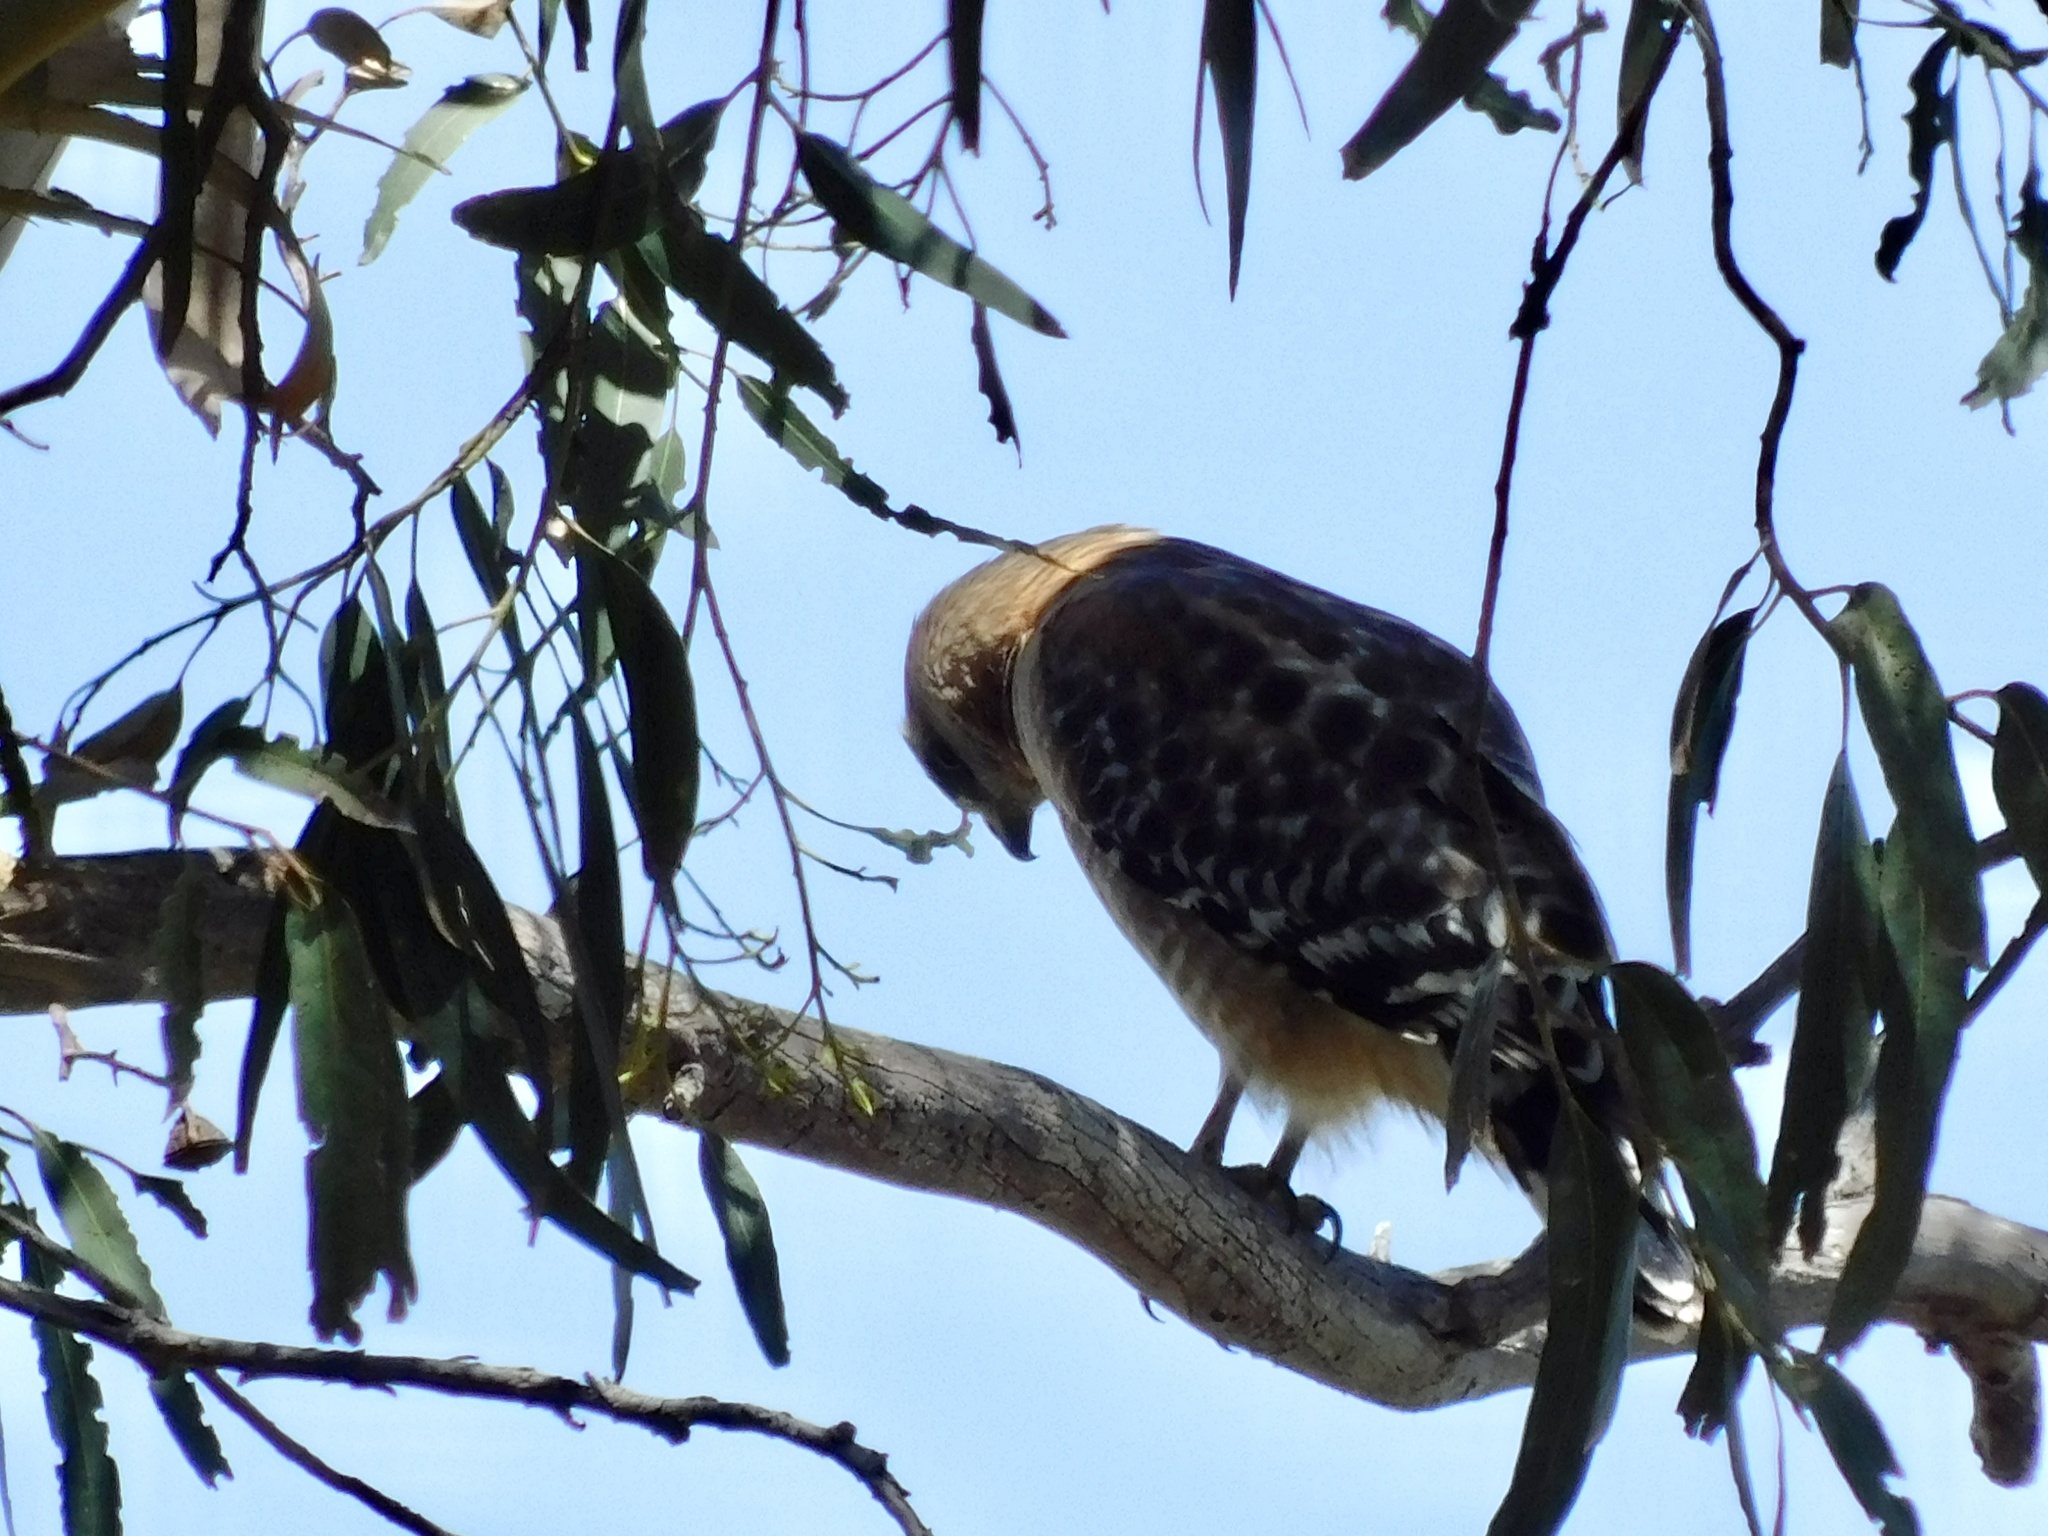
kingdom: Animalia
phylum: Chordata
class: Aves
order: Accipitriformes
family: Accipitridae
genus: Buteo
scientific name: Buteo lineatus
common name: Red-shouldered hawk
